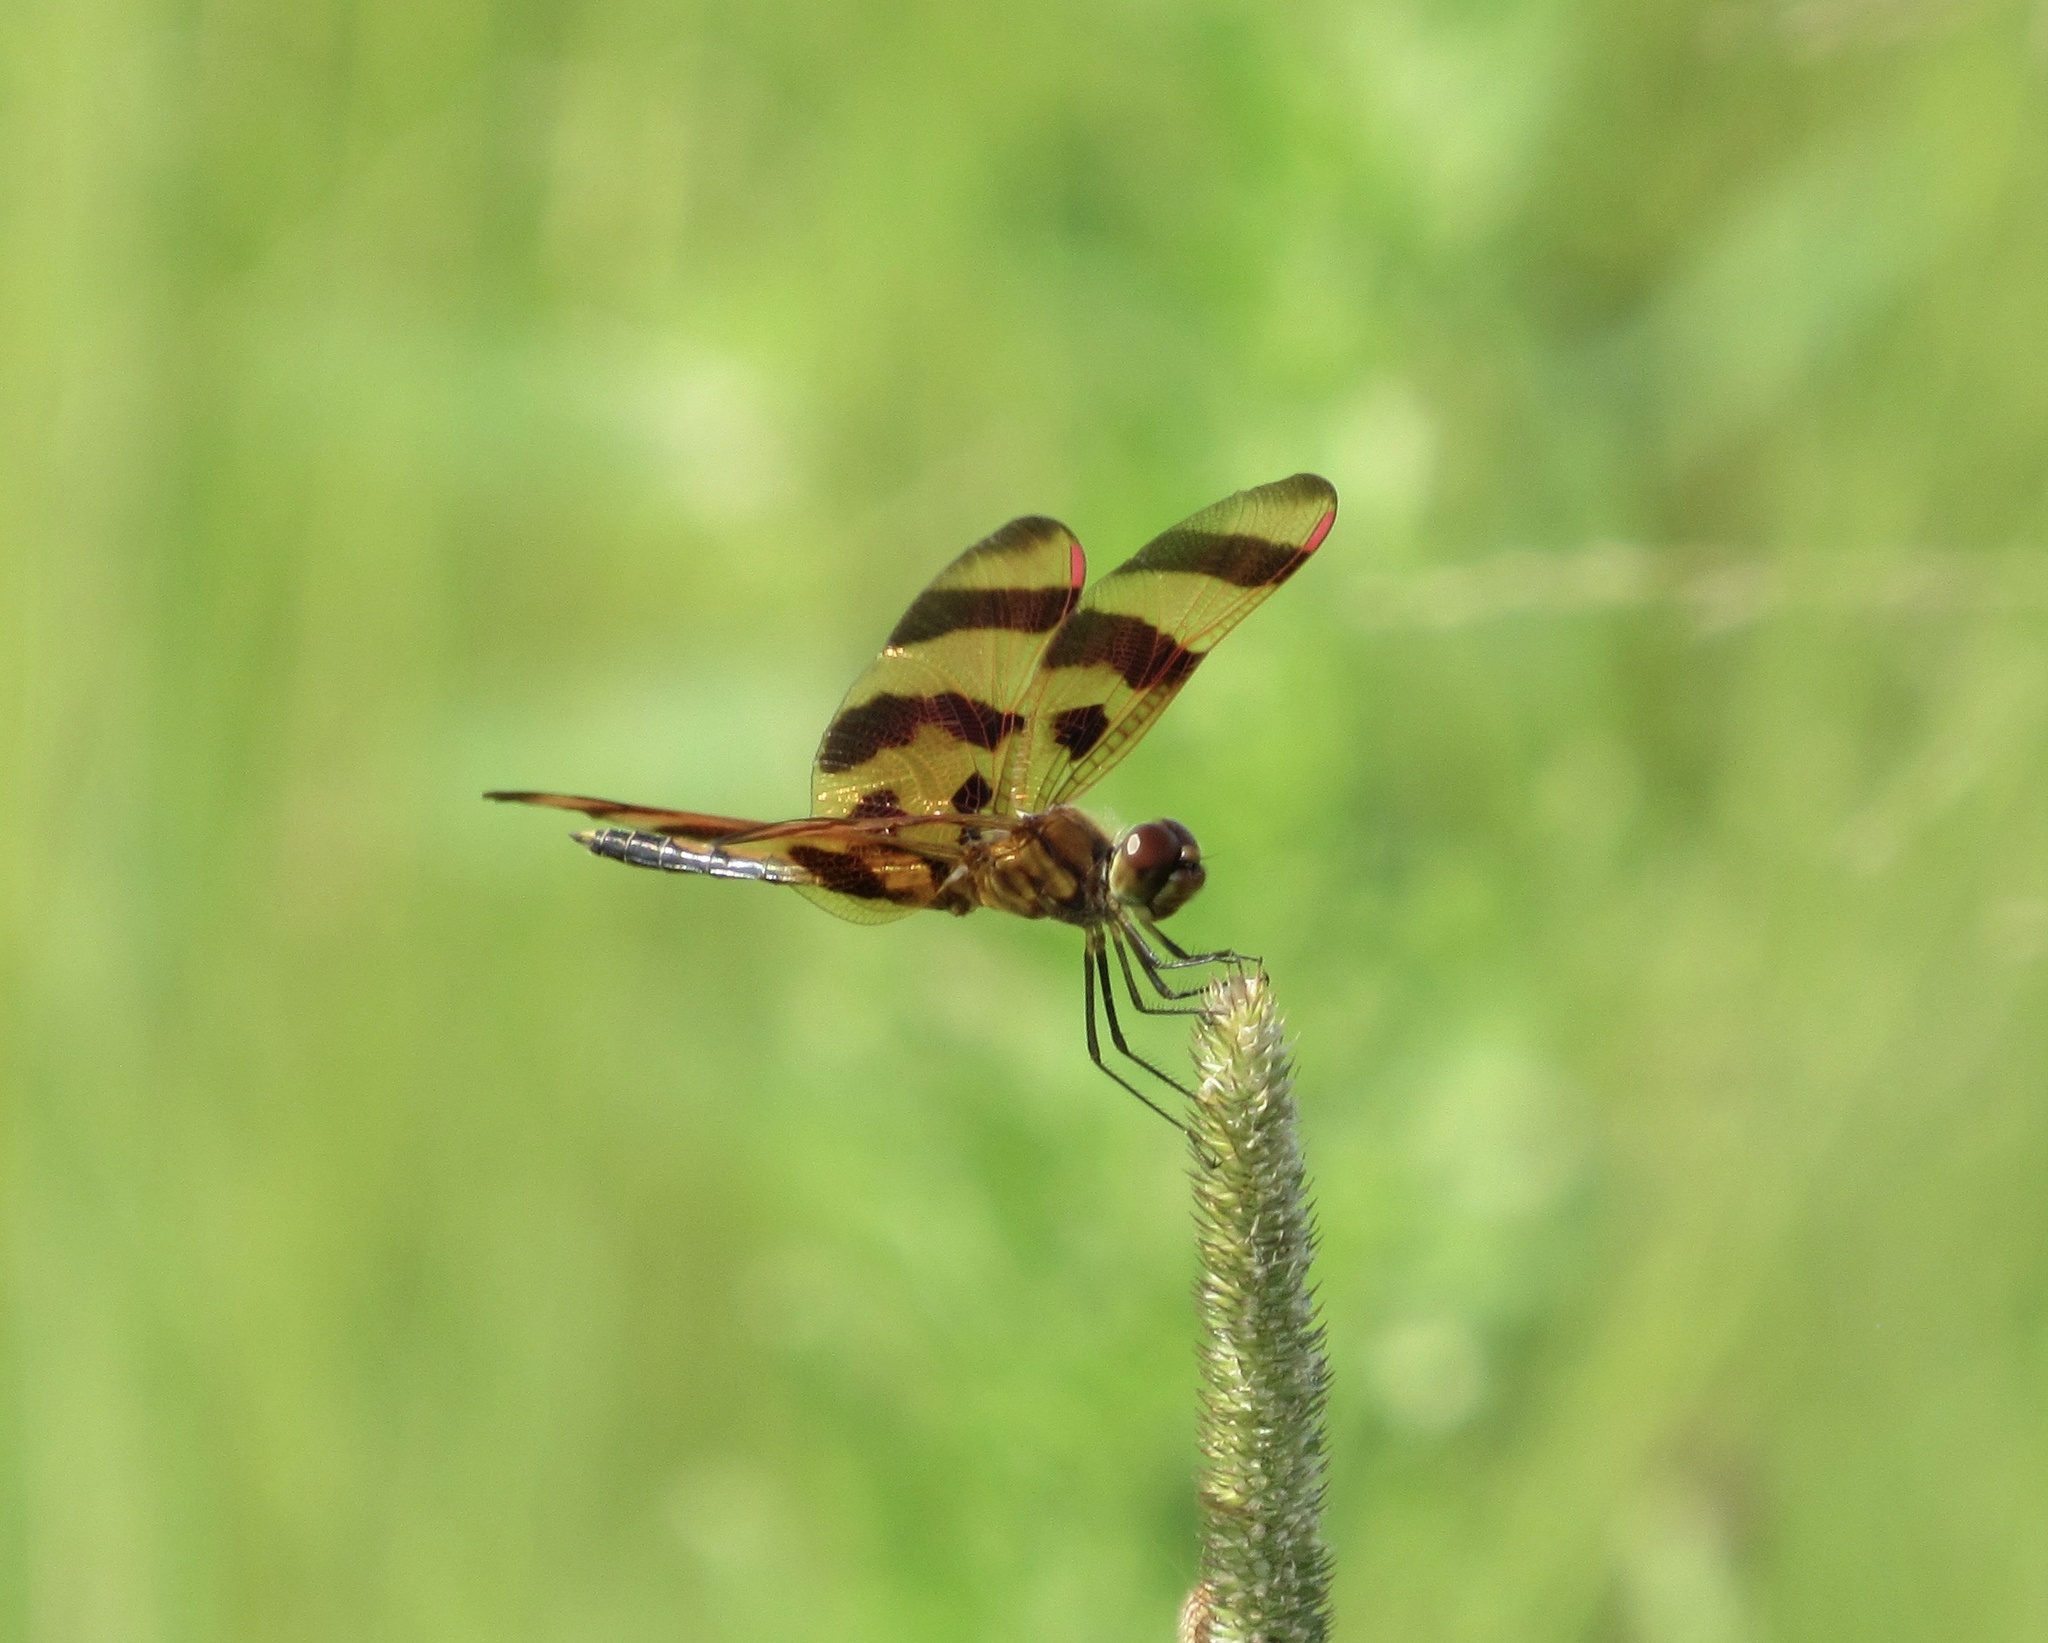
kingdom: Animalia
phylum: Arthropoda
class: Insecta
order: Odonata
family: Libellulidae
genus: Celithemis
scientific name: Celithemis eponina
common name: Halloween pennant
